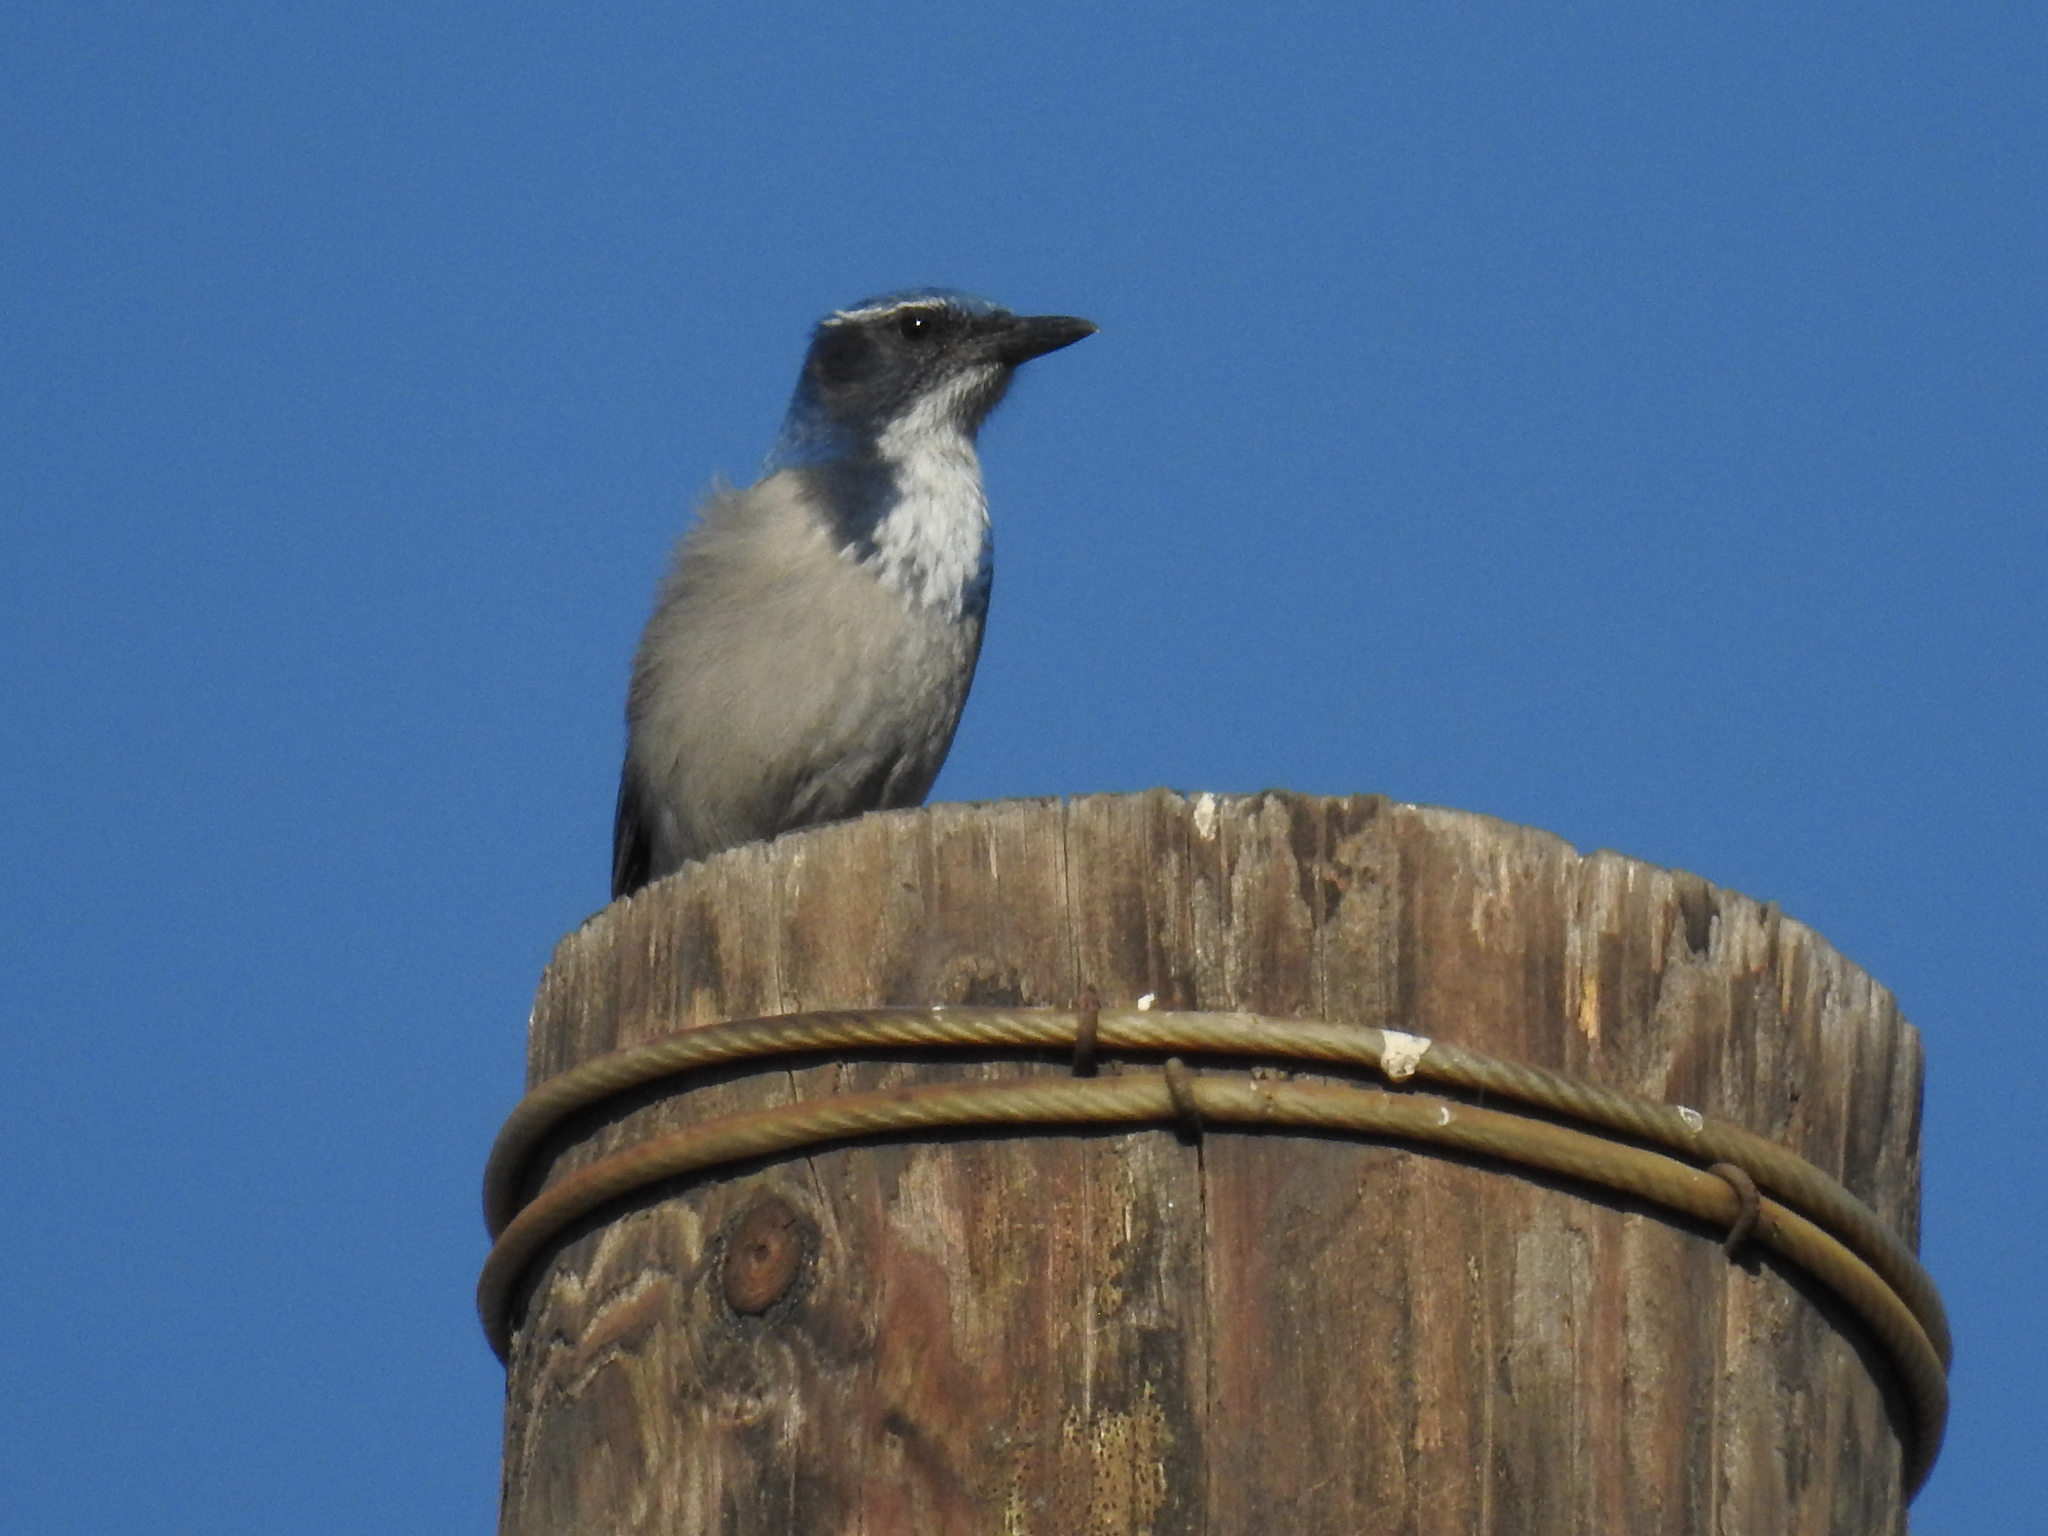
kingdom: Animalia
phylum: Chordata
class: Aves
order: Passeriformes
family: Corvidae
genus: Aphelocoma
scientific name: Aphelocoma californica
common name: California scrub-jay
